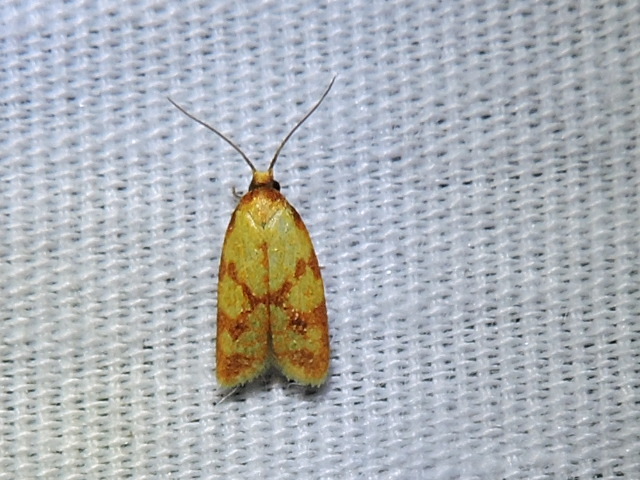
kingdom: Animalia
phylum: Arthropoda
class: Insecta
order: Lepidoptera
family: Tortricidae
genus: Sparganothis
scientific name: Sparganothis sulfureana
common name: Sparganothis fruitworm moth
